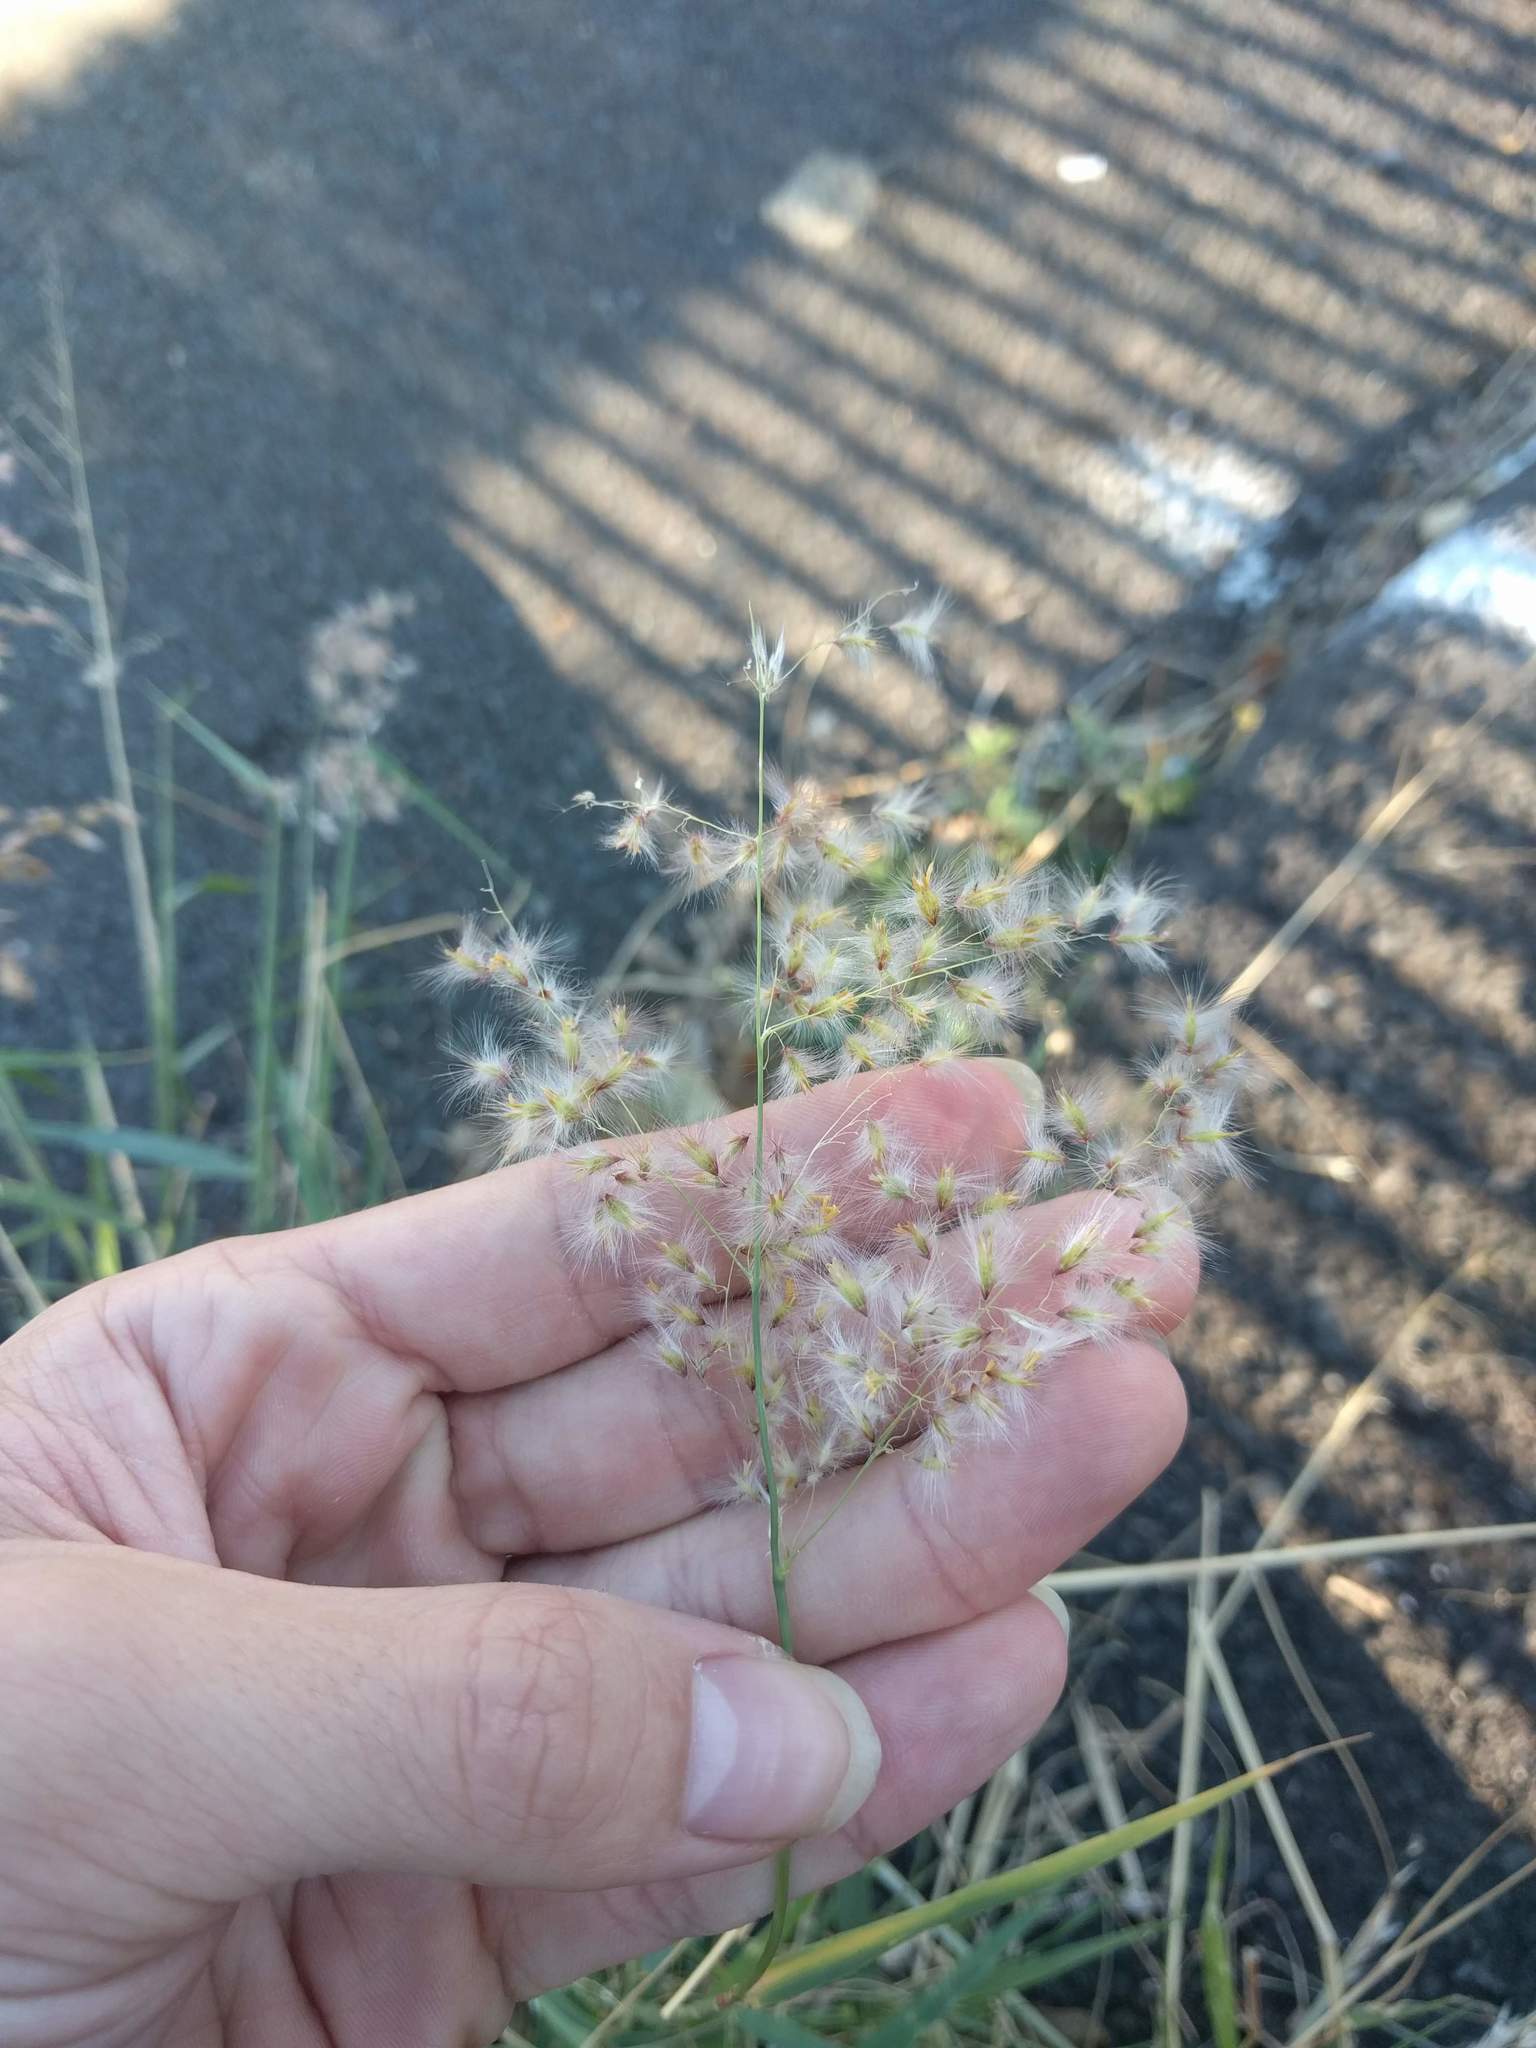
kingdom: Plantae
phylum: Tracheophyta
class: Liliopsida
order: Poales
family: Poaceae
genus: Melinis
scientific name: Melinis repens
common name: Rose natal grass
